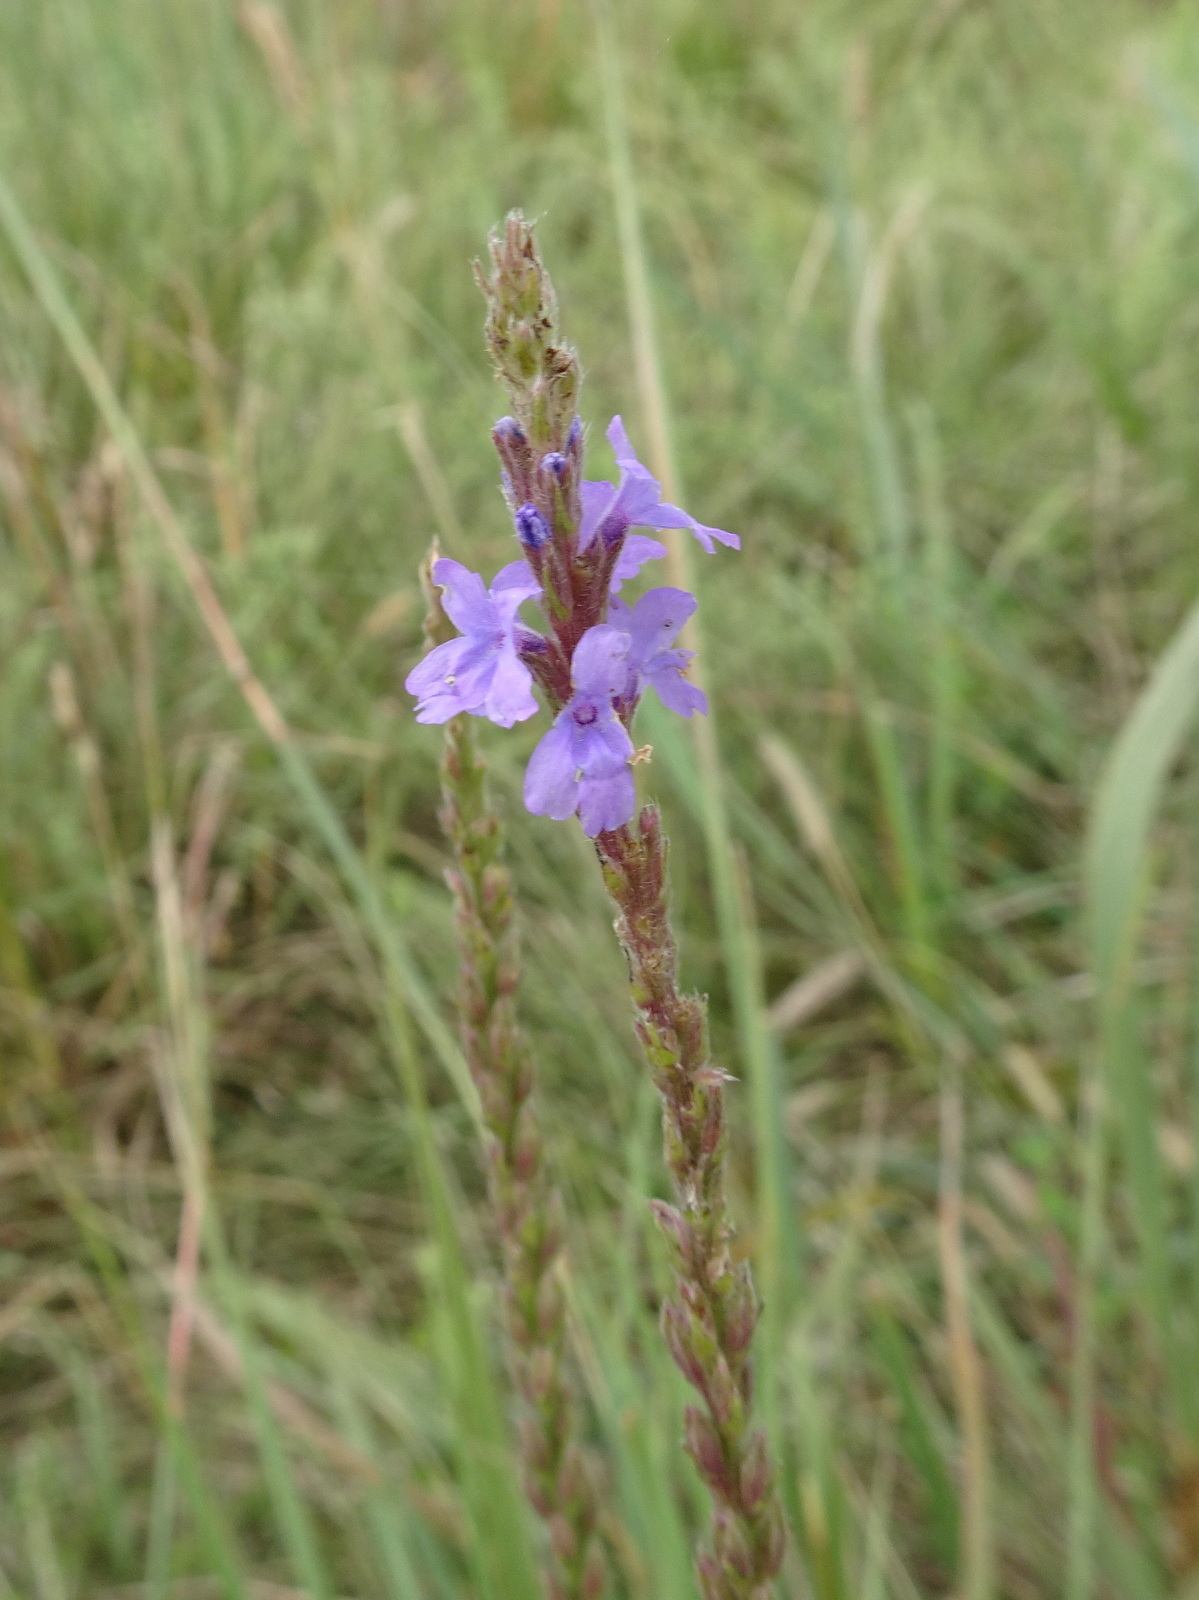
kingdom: Plantae
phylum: Tracheophyta
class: Magnoliopsida
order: Lamiales
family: Verbenaceae
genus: Verbena
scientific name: Verbena stricta
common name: Hoary vervain
